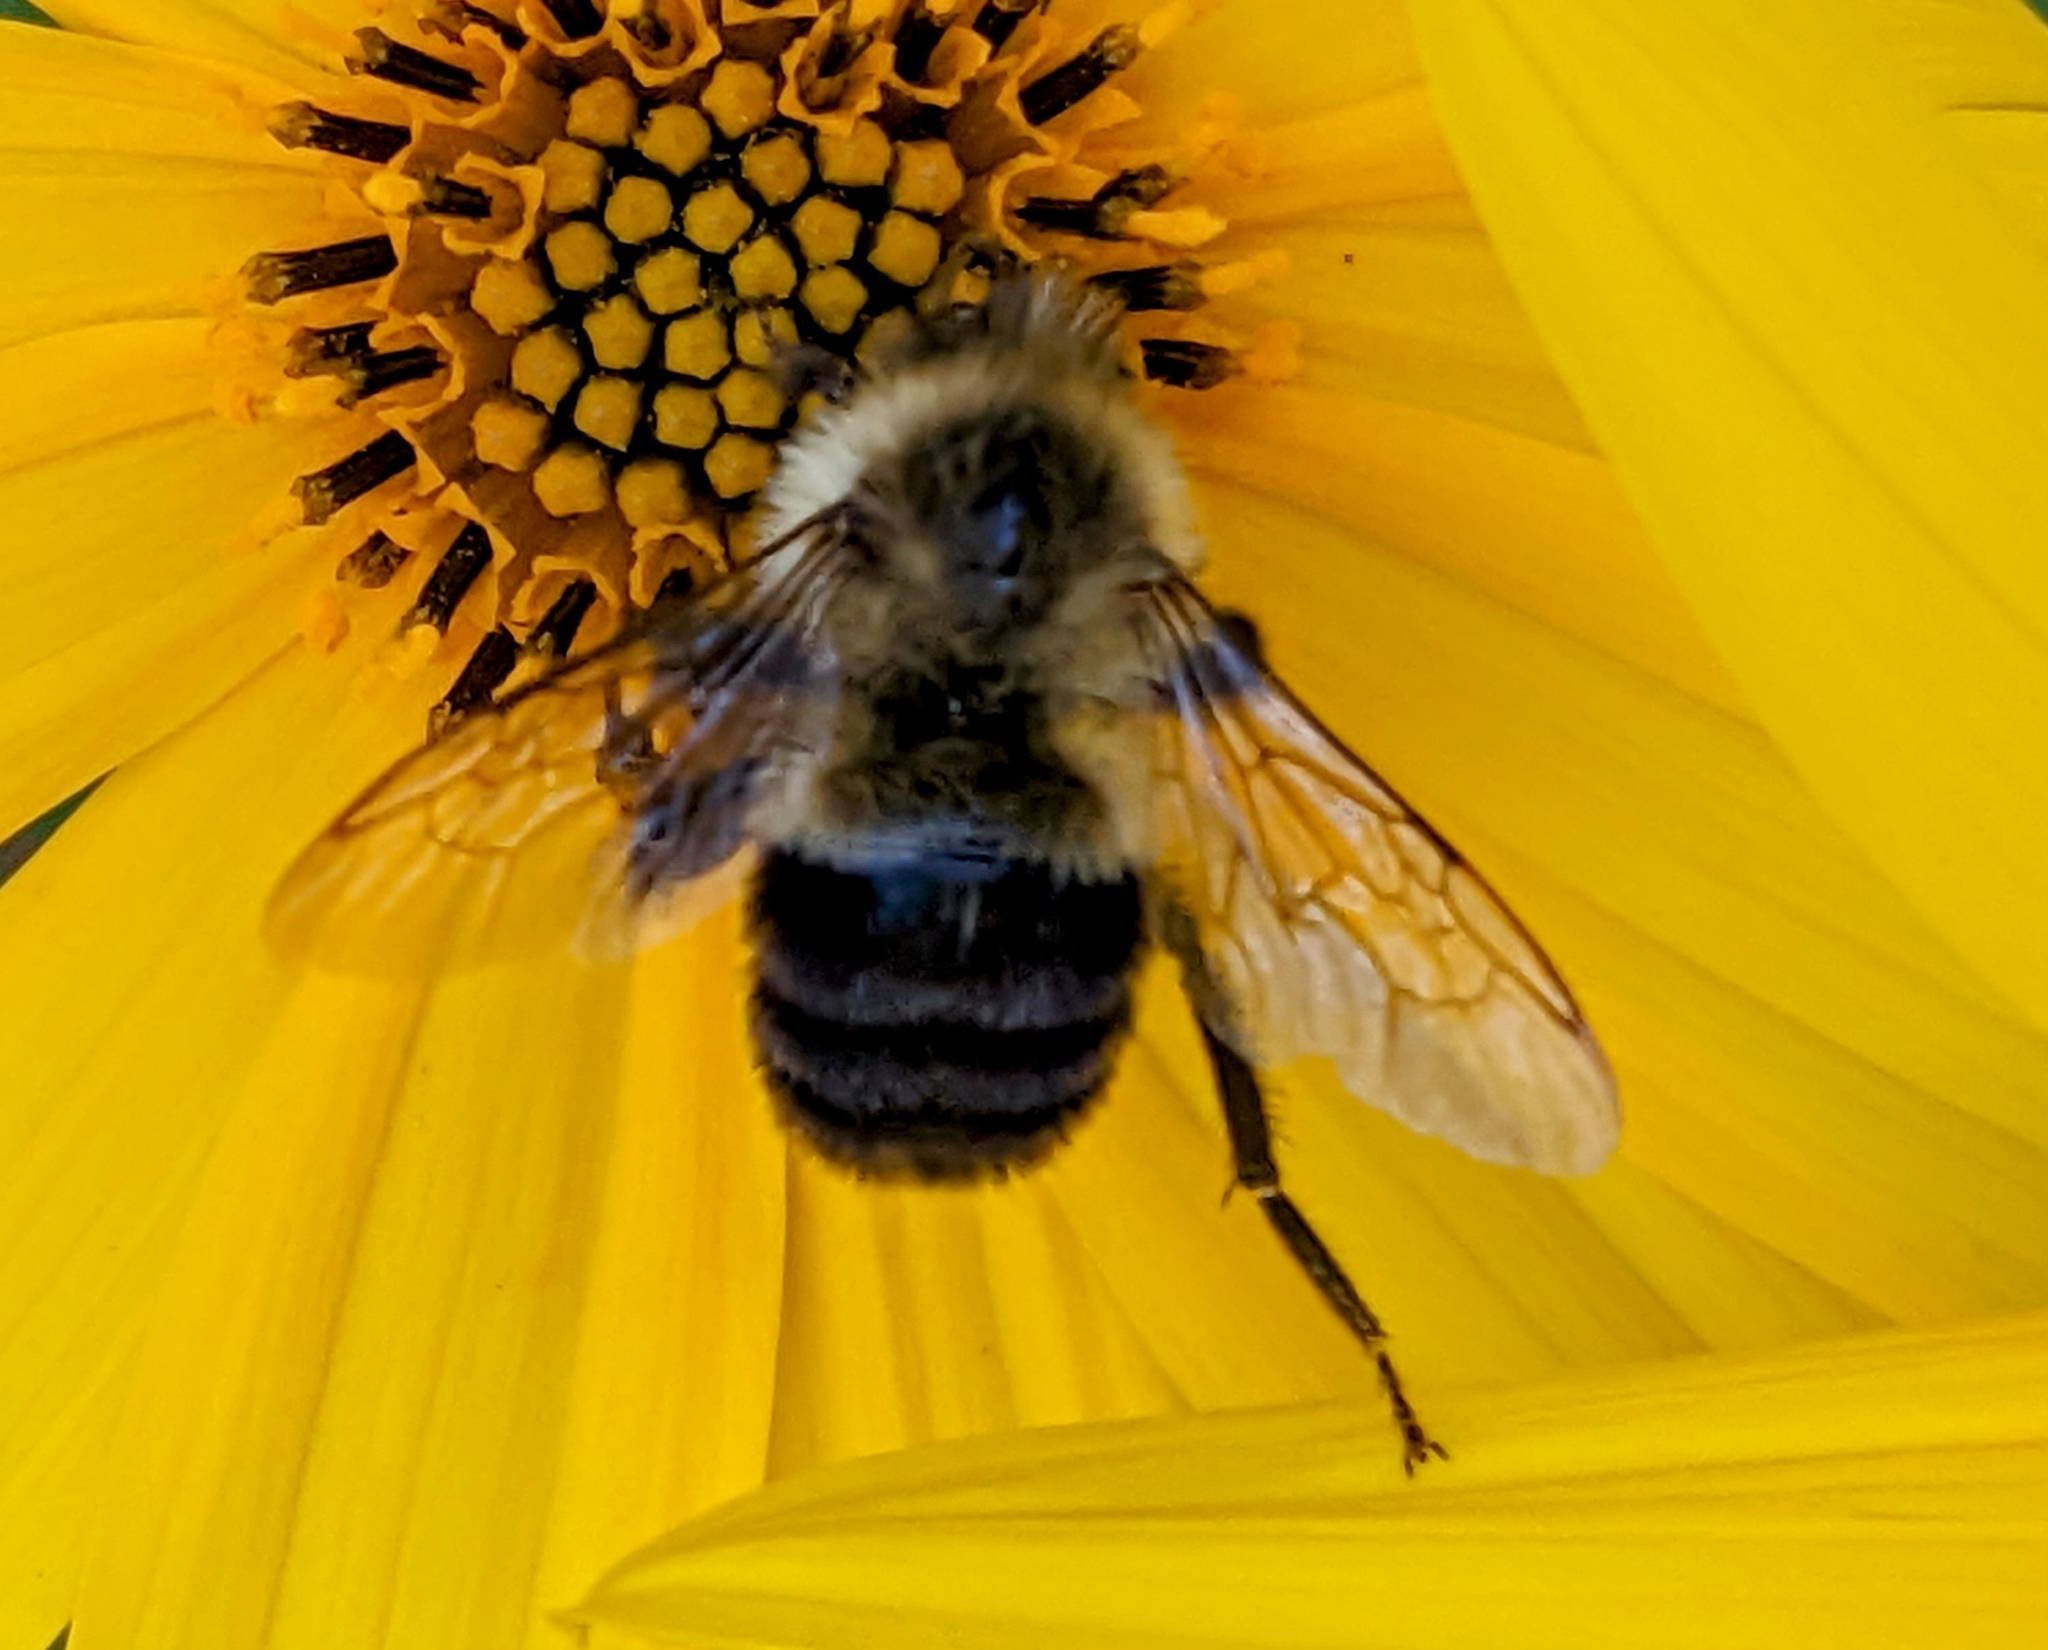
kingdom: Animalia
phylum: Arthropoda
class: Insecta
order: Hymenoptera
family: Apidae
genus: Bombus
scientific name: Bombus impatiens
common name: Common eastern bumble bee
